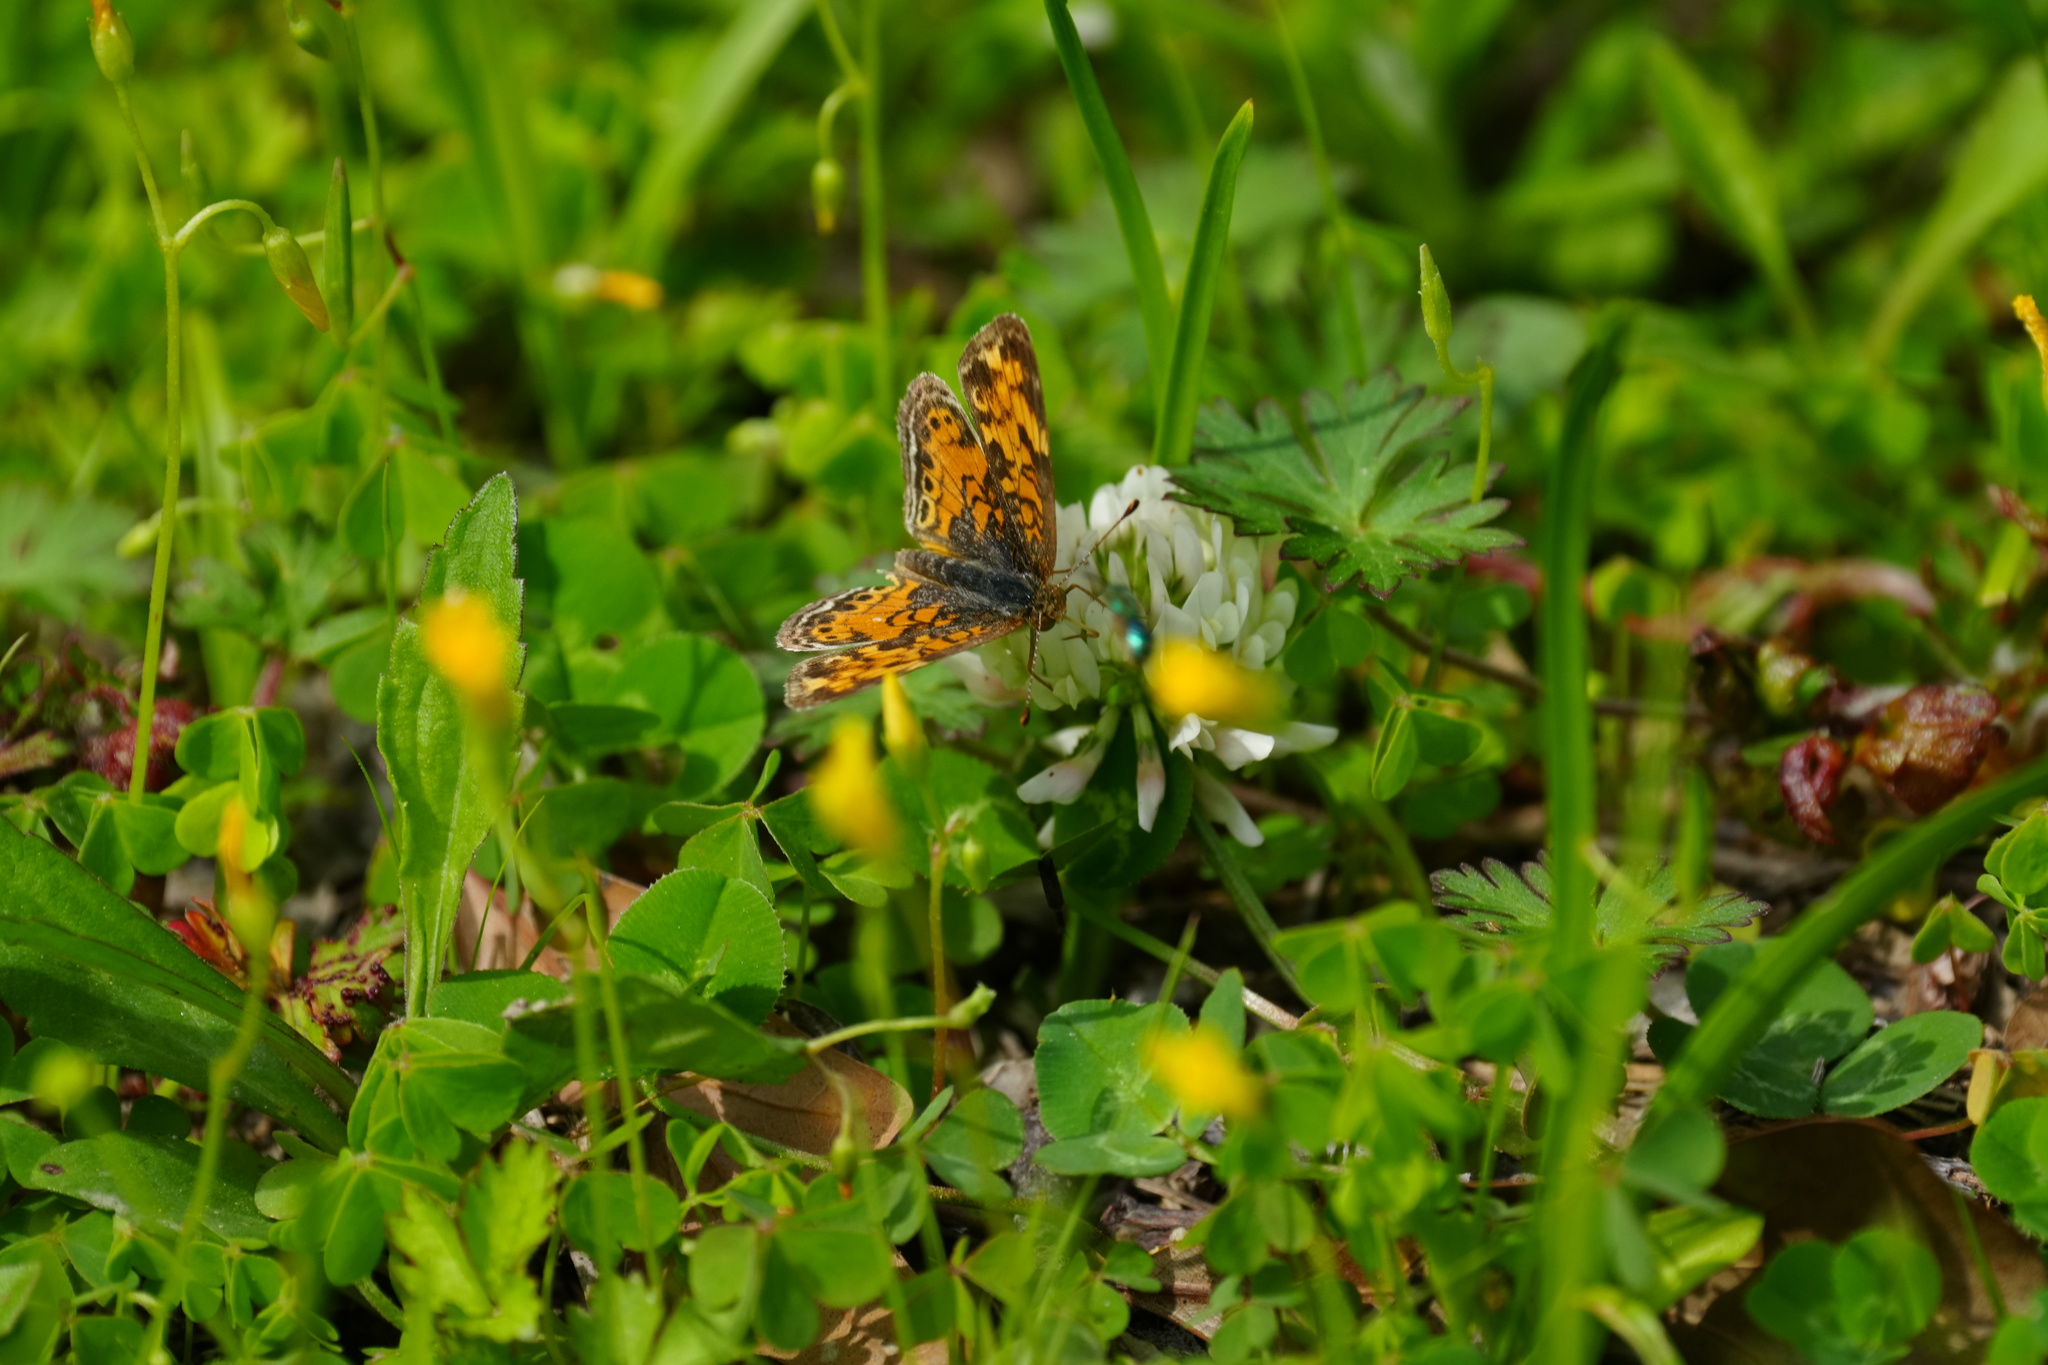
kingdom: Animalia
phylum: Arthropoda
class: Insecta
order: Lepidoptera
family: Nymphalidae
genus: Phyciodes
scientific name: Phyciodes tharos
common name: Pearl crescent
